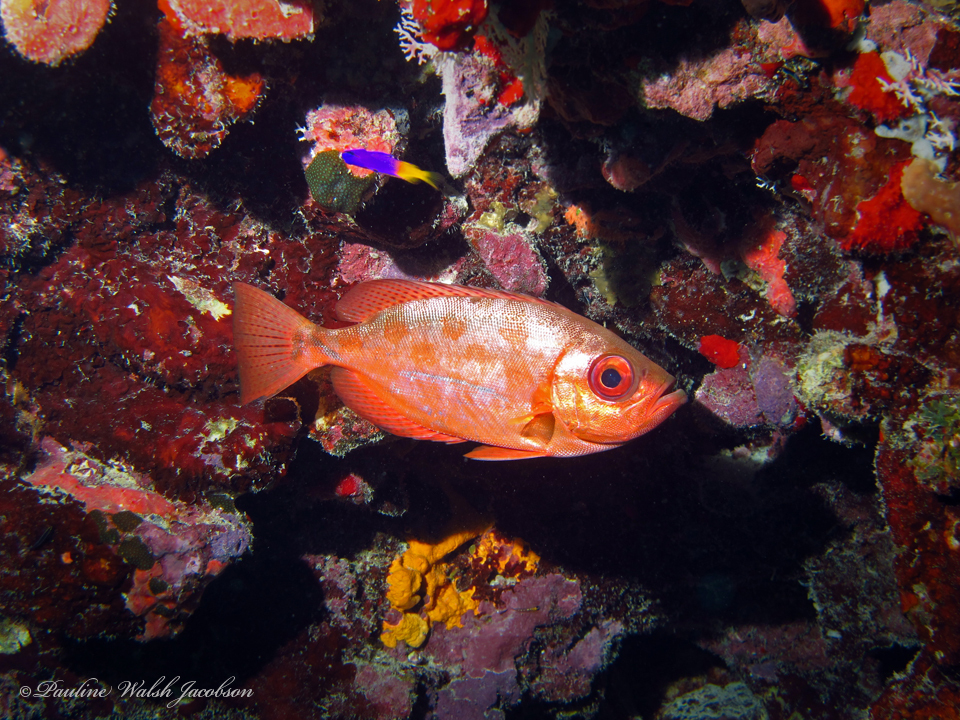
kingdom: Animalia
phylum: Chordata
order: Perciformes
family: Priacanthidae
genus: Heteropriacanthus
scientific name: Heteropriacanthus cruentatus
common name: Glasseye
